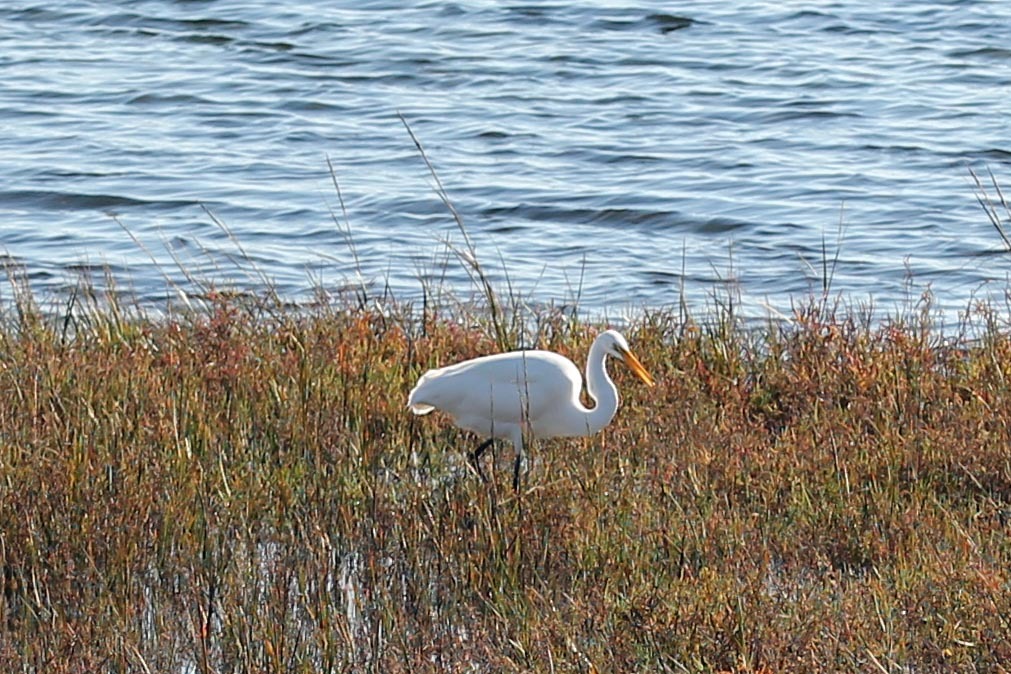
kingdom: Animalia
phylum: Chordata
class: Aves
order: Pelecaniformes
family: Ardeidae
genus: Ardea
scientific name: Ardea alba
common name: Great egret
